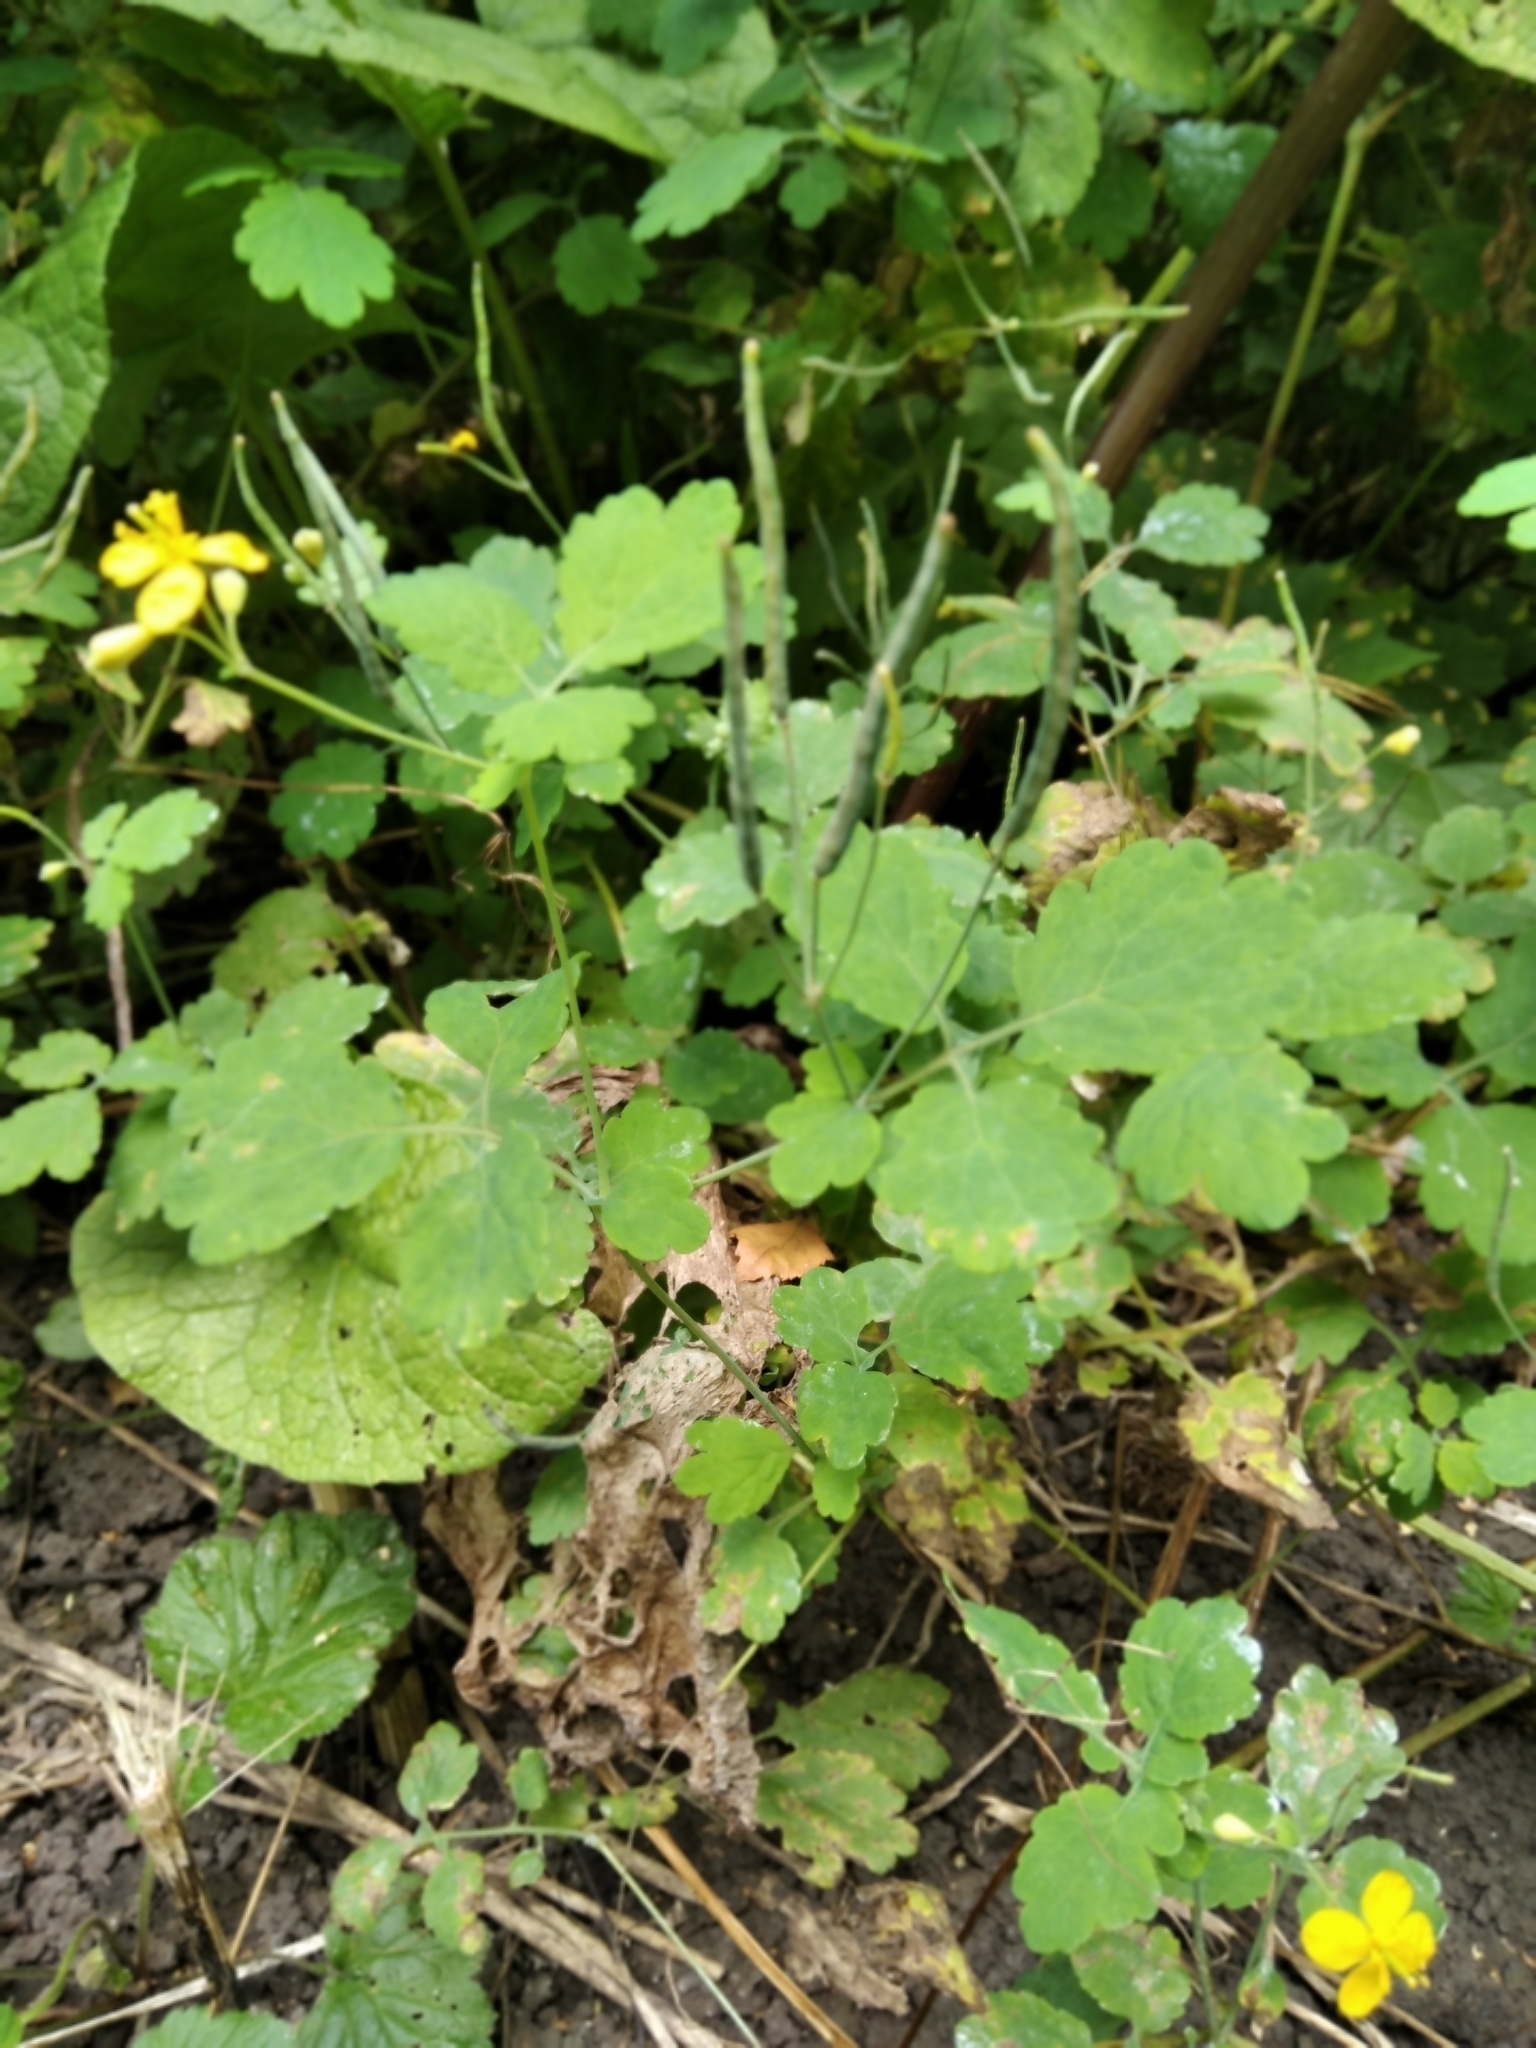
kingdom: Plantae
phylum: Tracheophyta
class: Magnoliopsida
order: Ranunculales
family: Papaveraceae
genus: Chelidonium
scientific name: Chelidonium majus
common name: Greater celandine
